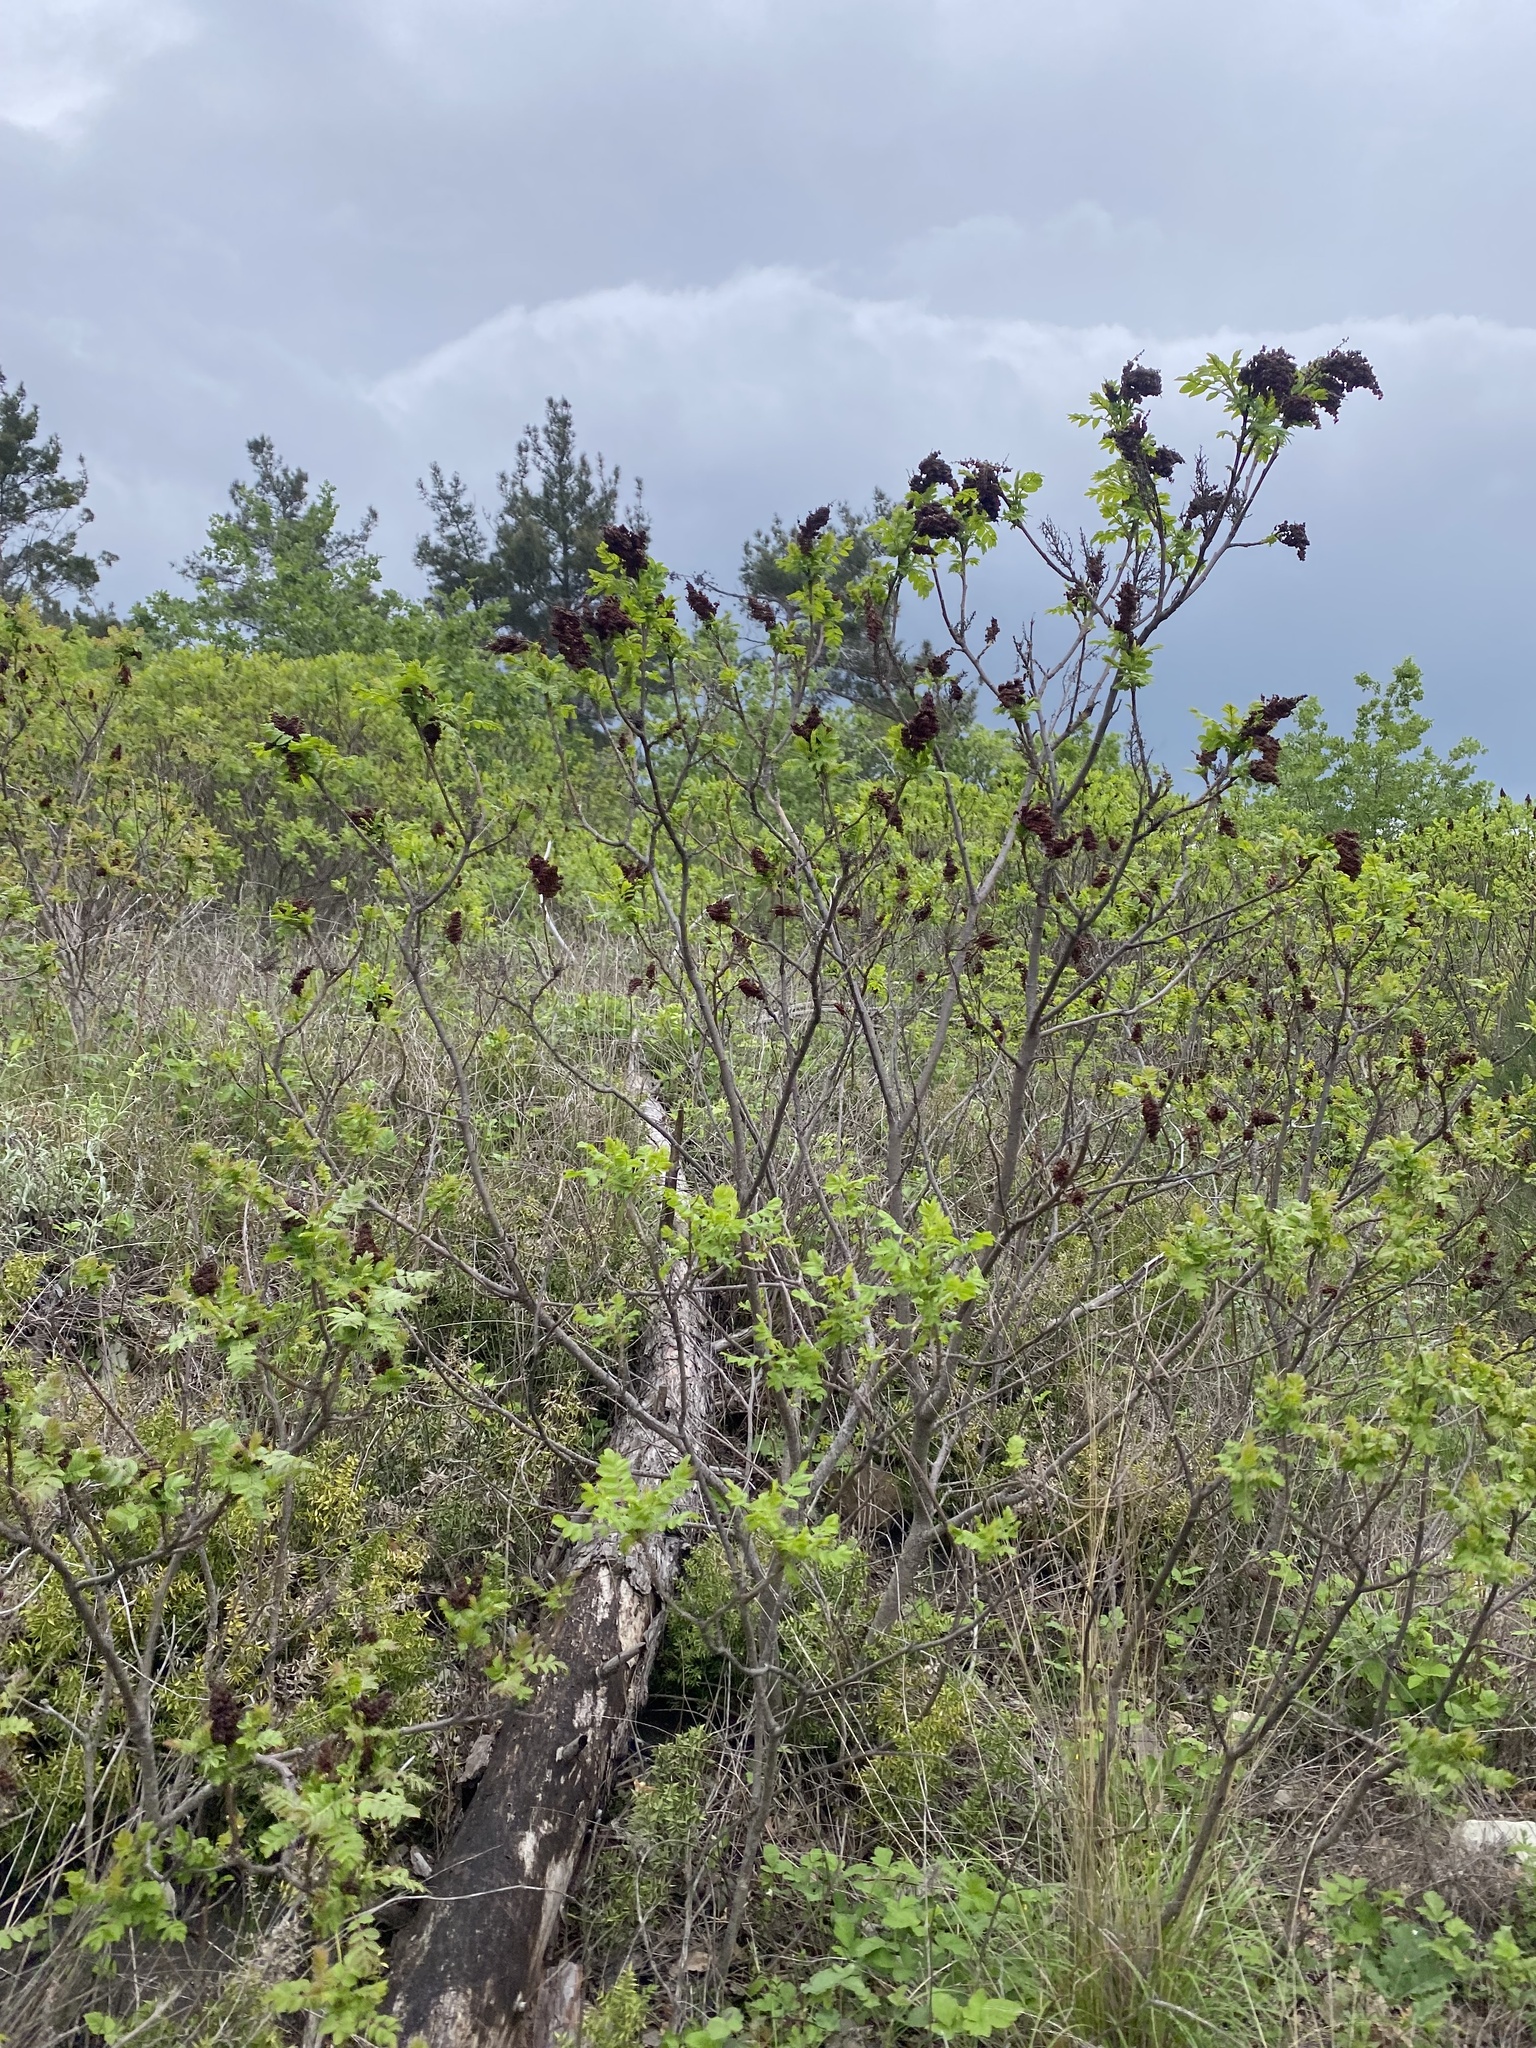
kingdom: Plantae
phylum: Tracheophyta
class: Magnoliopsida
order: Sapindales
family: Anacardiaceae
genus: Rhus
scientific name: Rhus coriaria
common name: Tanner's sumach
